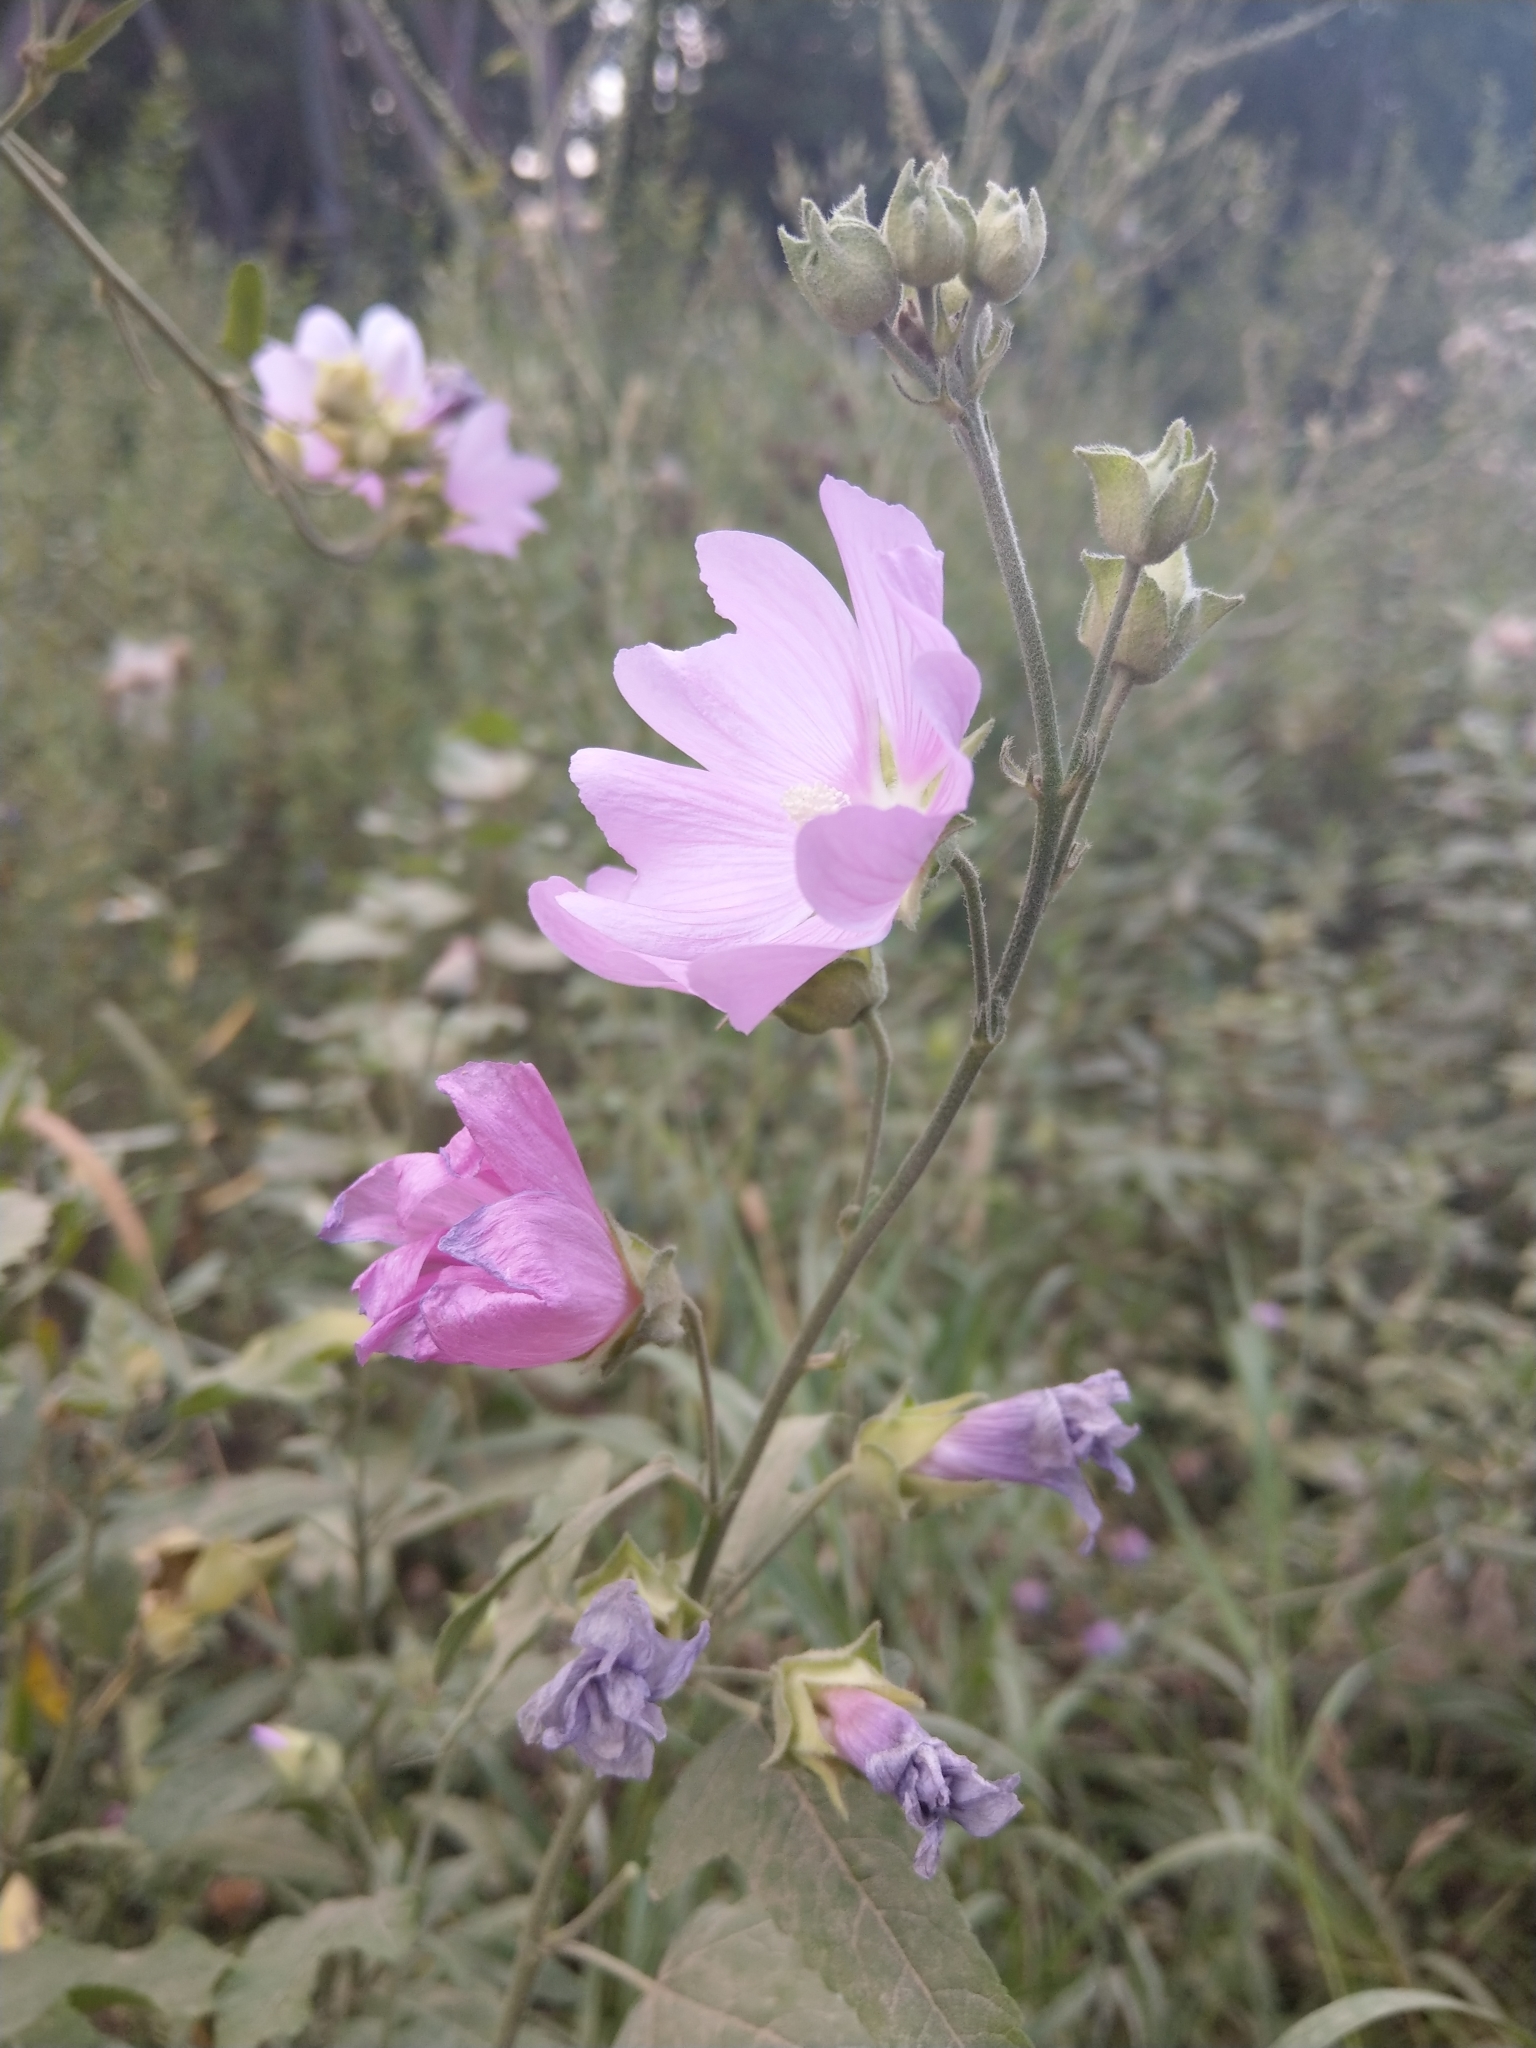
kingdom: Plantae
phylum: Tracheophyta
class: Magnoliopsida
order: Malvales
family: Malvaceae
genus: Malva
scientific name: Malva thuringiaca
